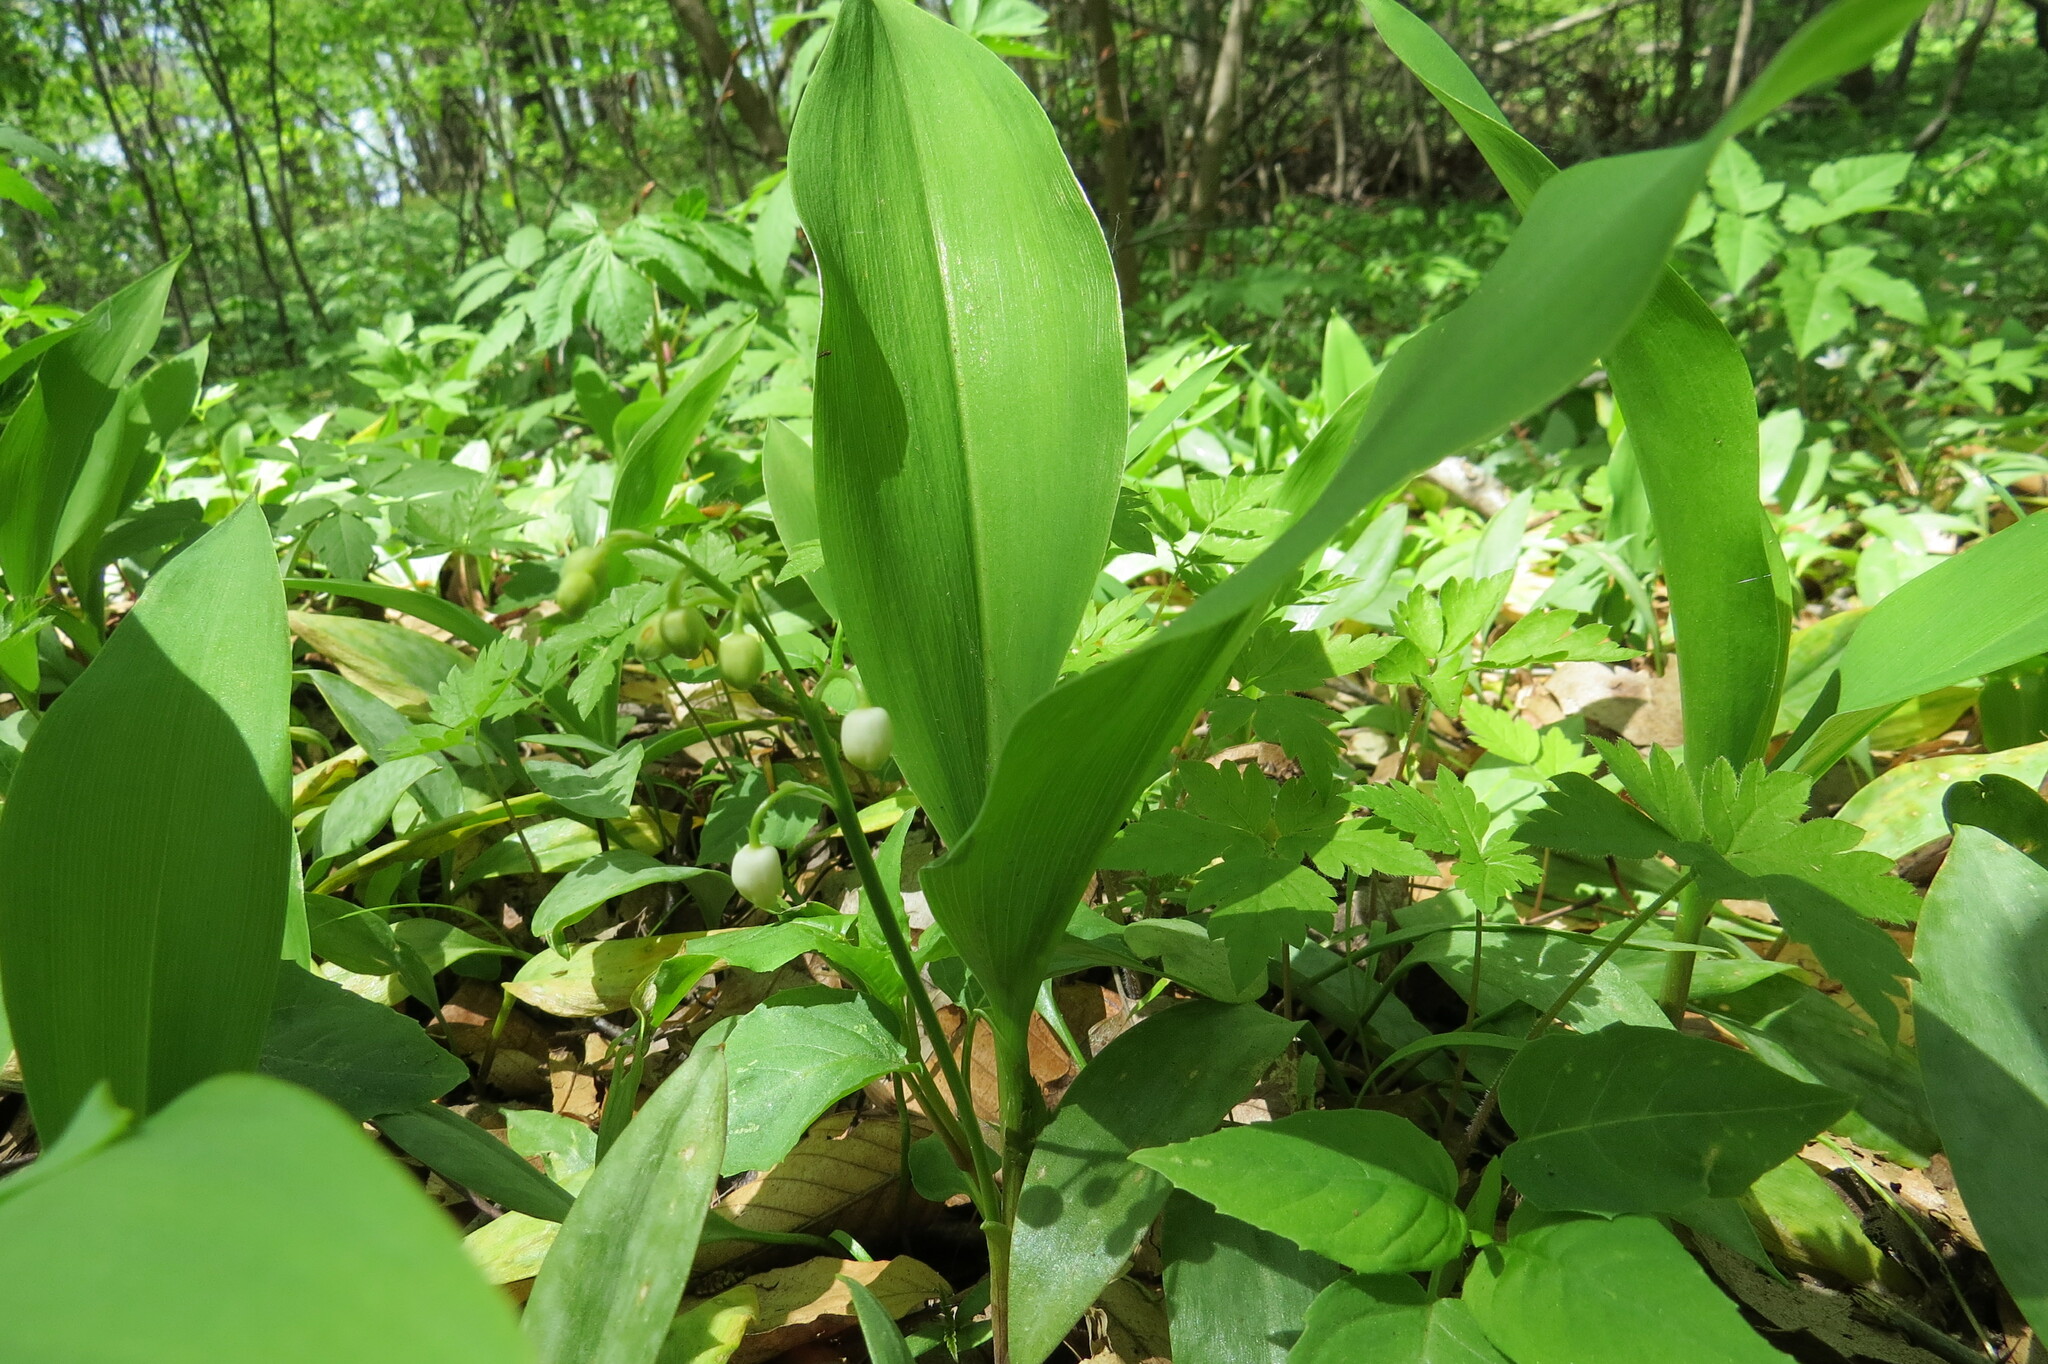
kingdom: Plantae
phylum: Tracheophyta
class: Liliopsida
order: Asparagales
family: Asparagaceae
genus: Convallaria
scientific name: Convallaria majalis
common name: Lily-of-the-valley
